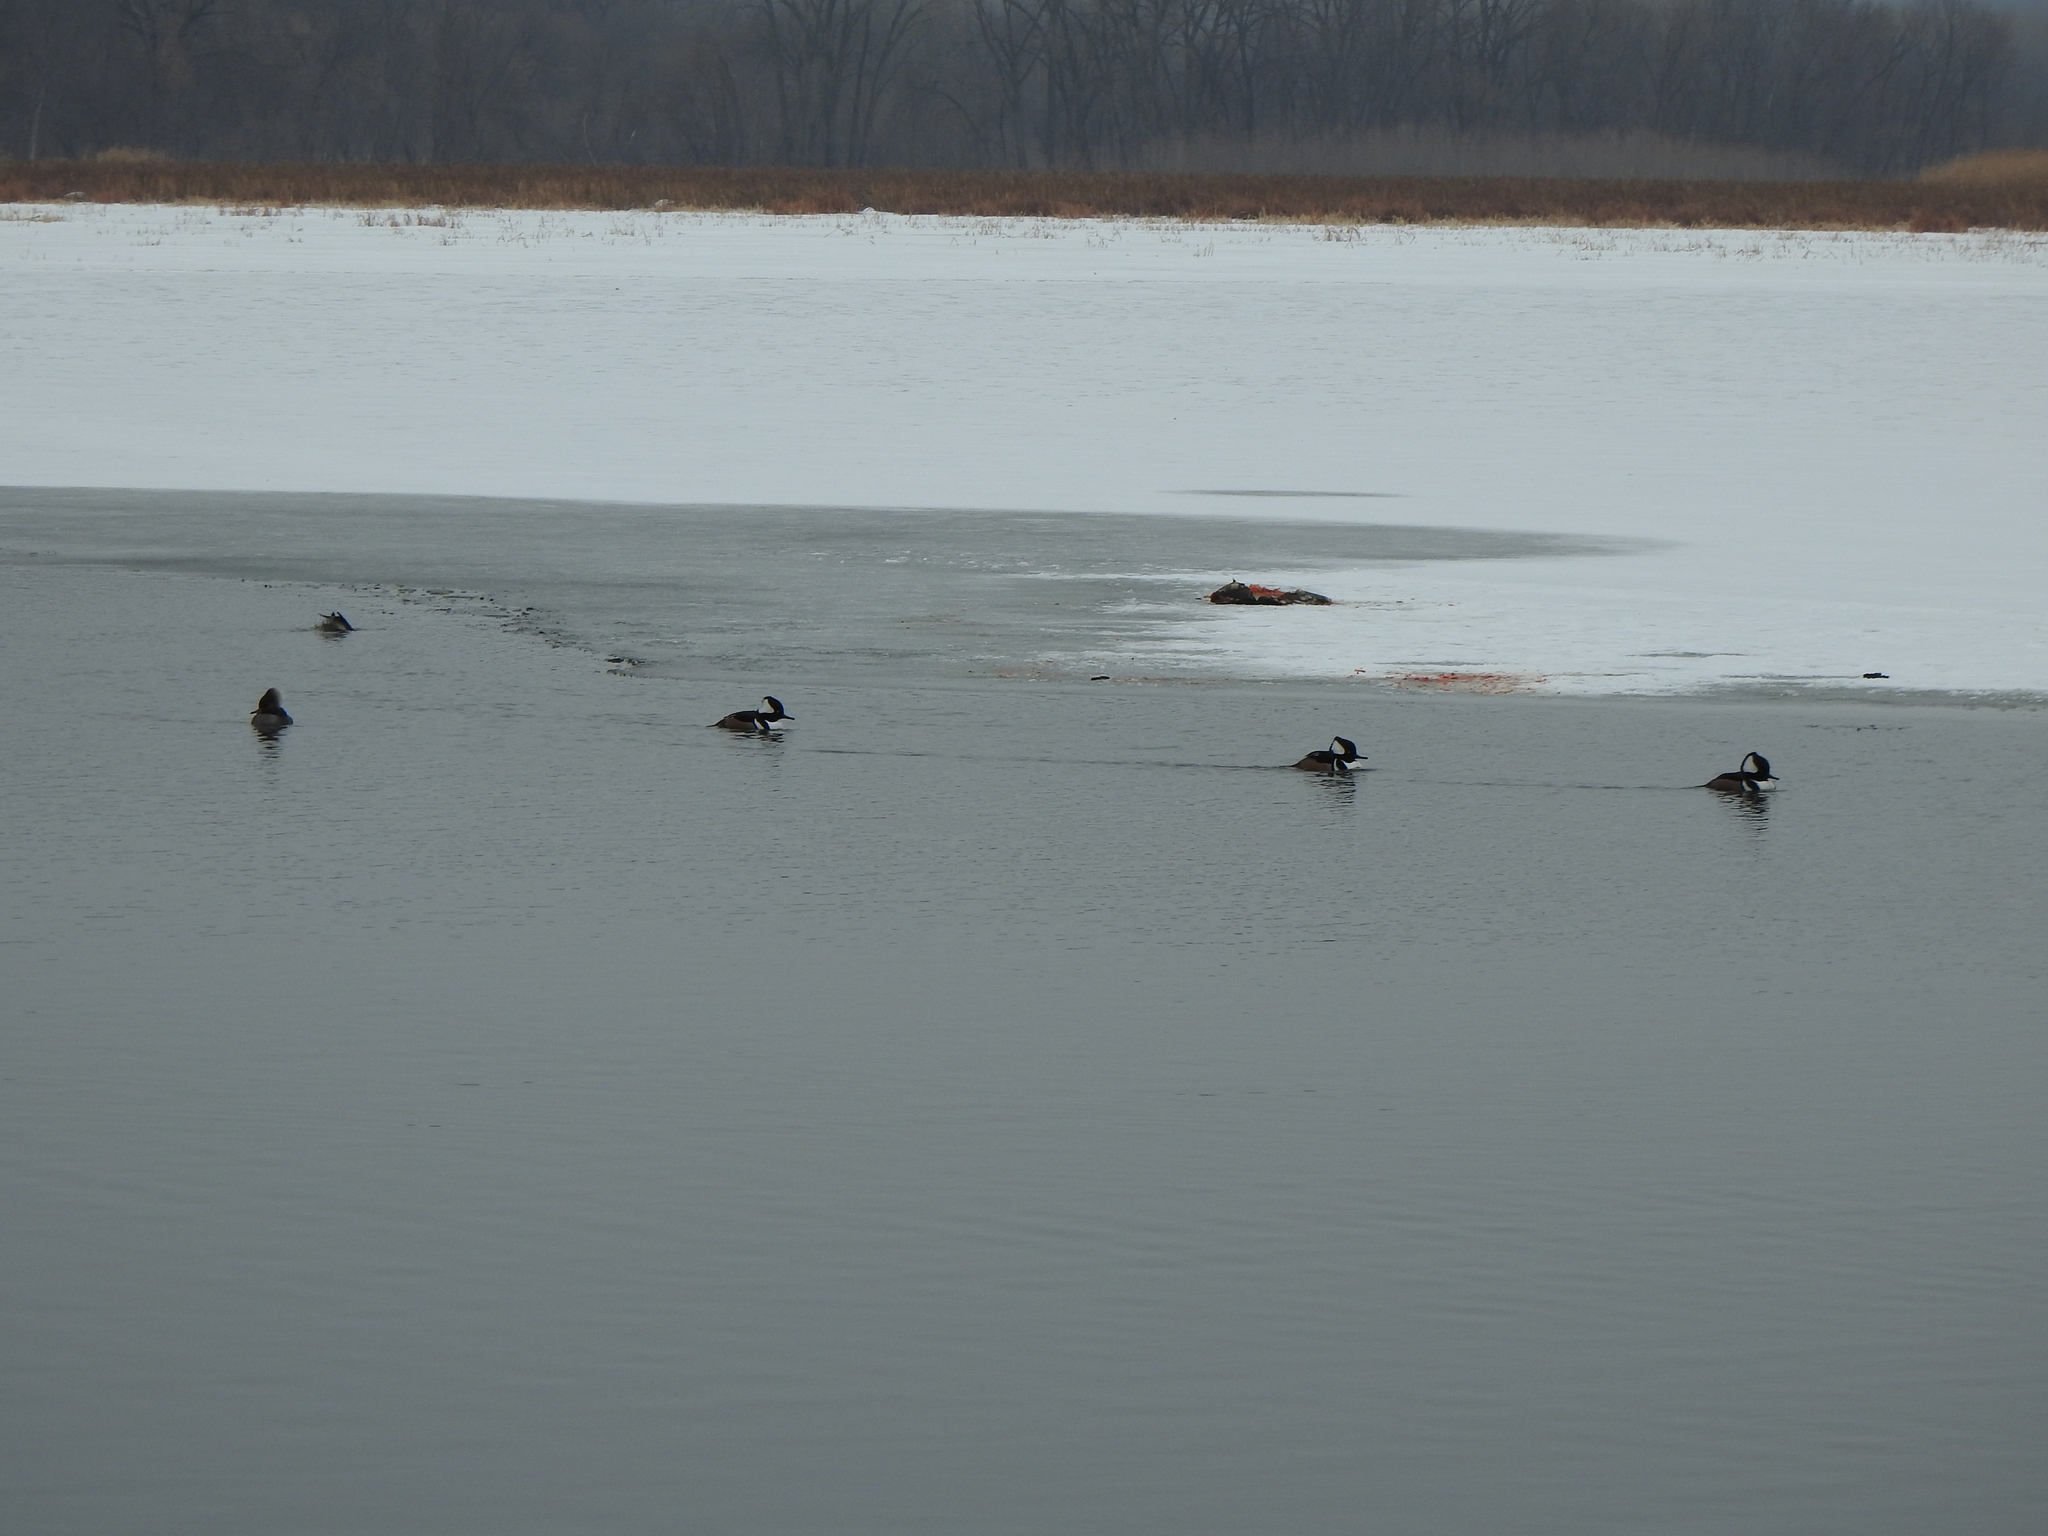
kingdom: Animalia
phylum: Chordata
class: Mammalia
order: Carnivora
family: Mustelidae
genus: Lontra
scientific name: Lontra canadensis
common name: North american river otter
